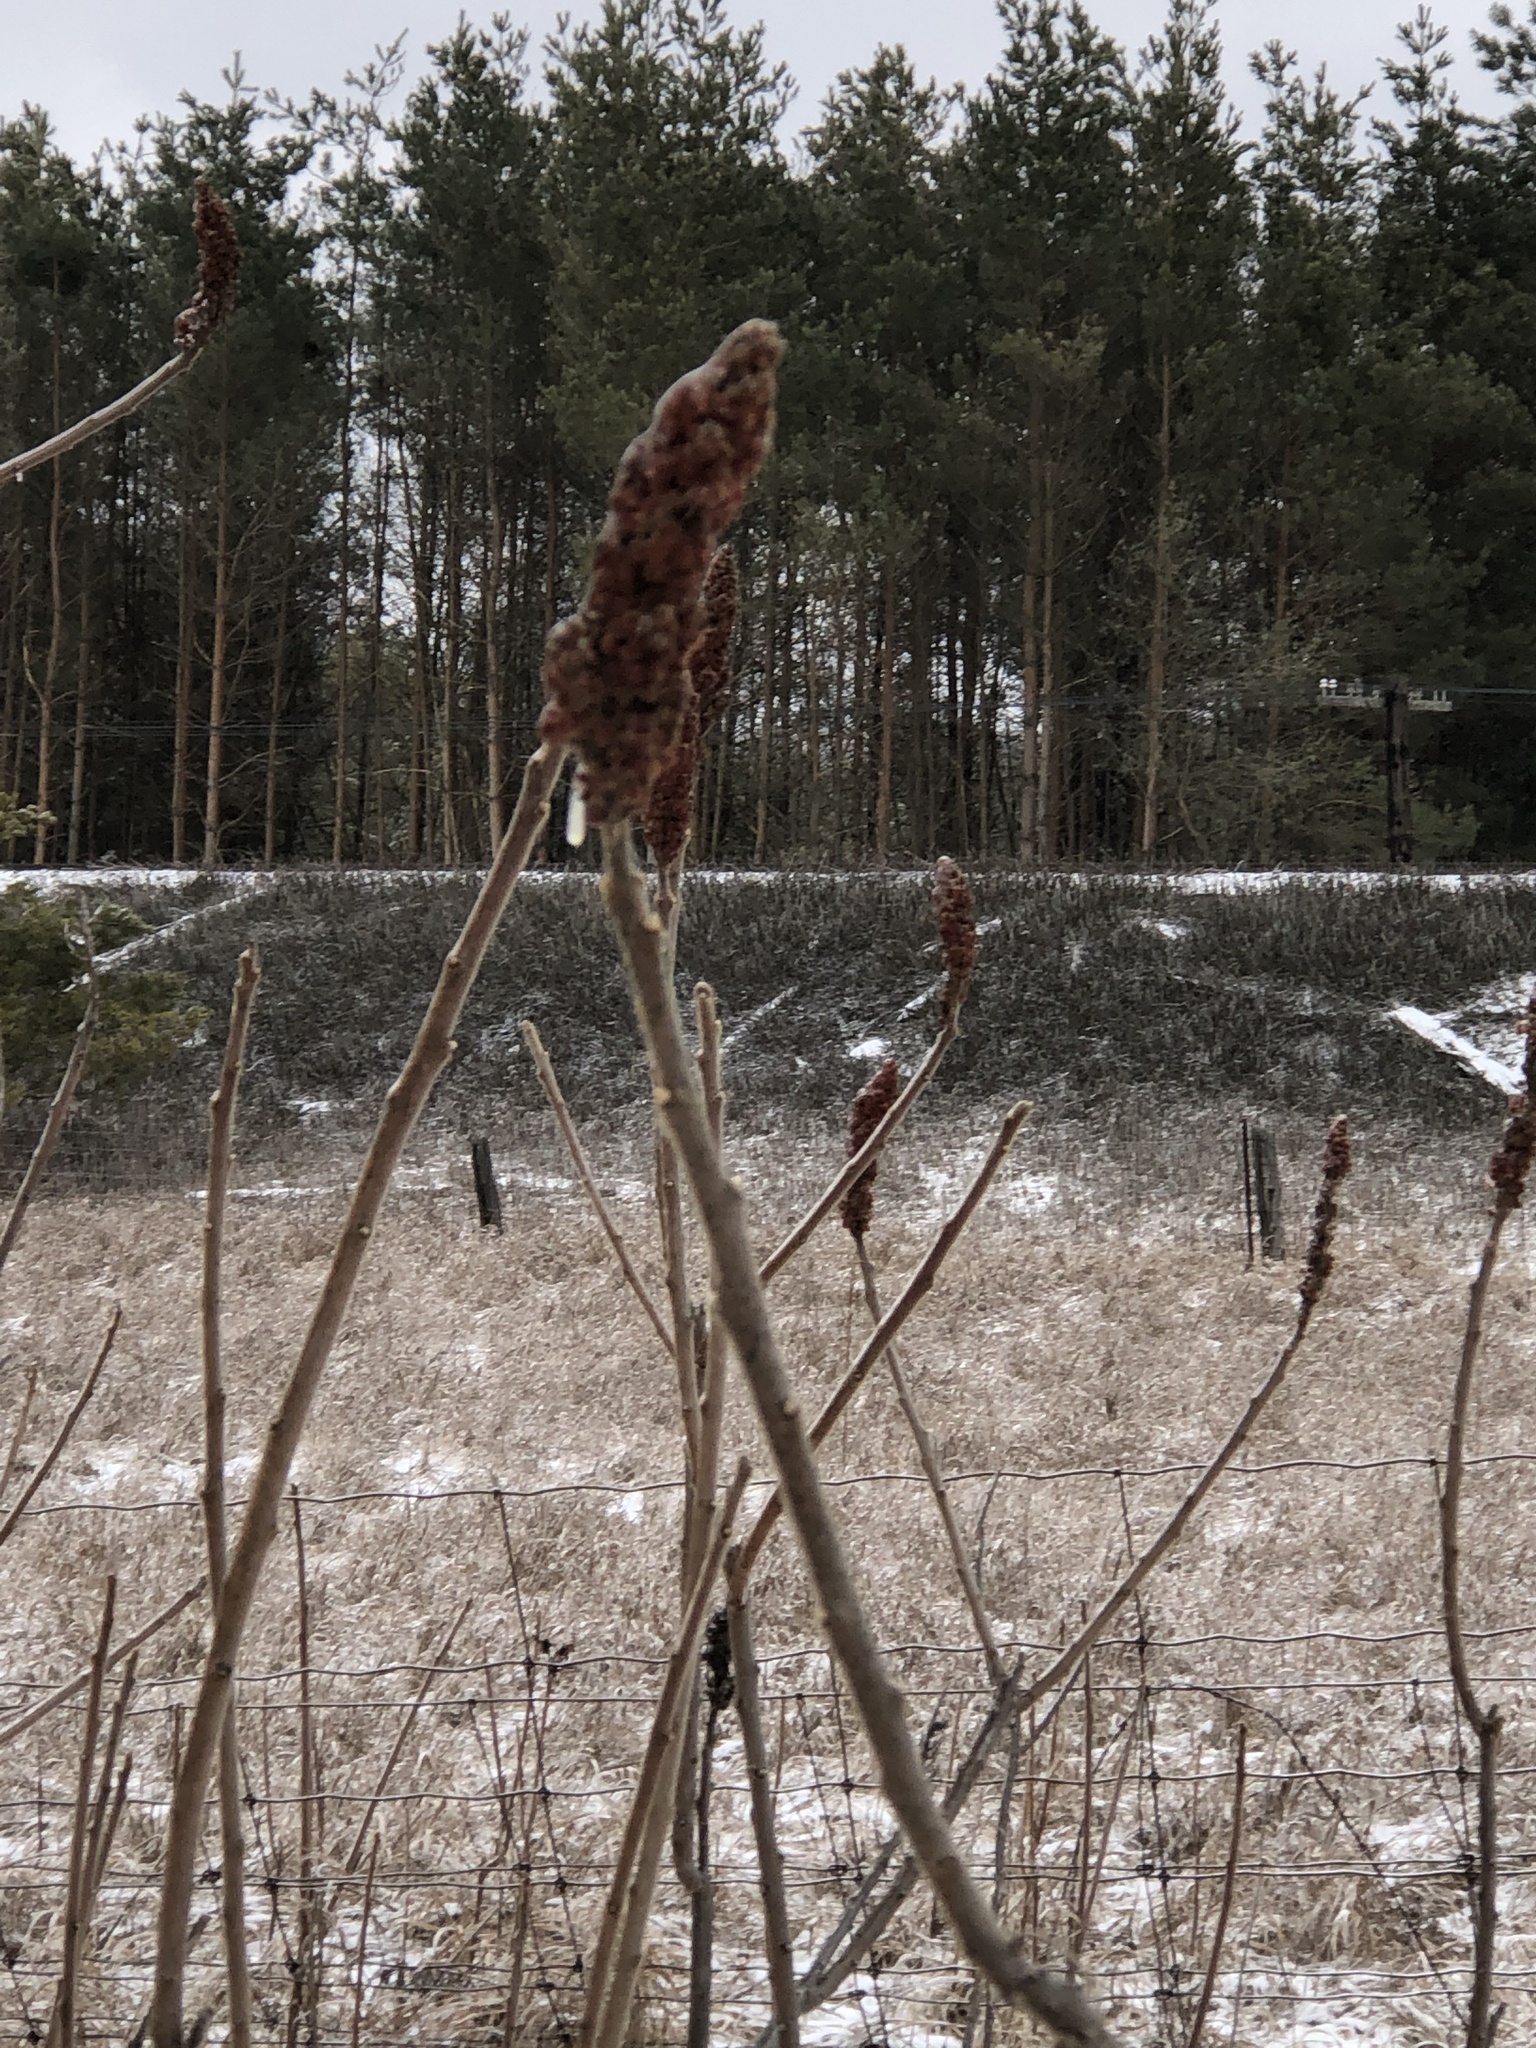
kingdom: Plantae
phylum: Tracheophyta
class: Magnoliopsida
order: Sapindales
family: Anacardiaceae
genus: Rhus
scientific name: Rhus typhina
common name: Staghorn sumac
